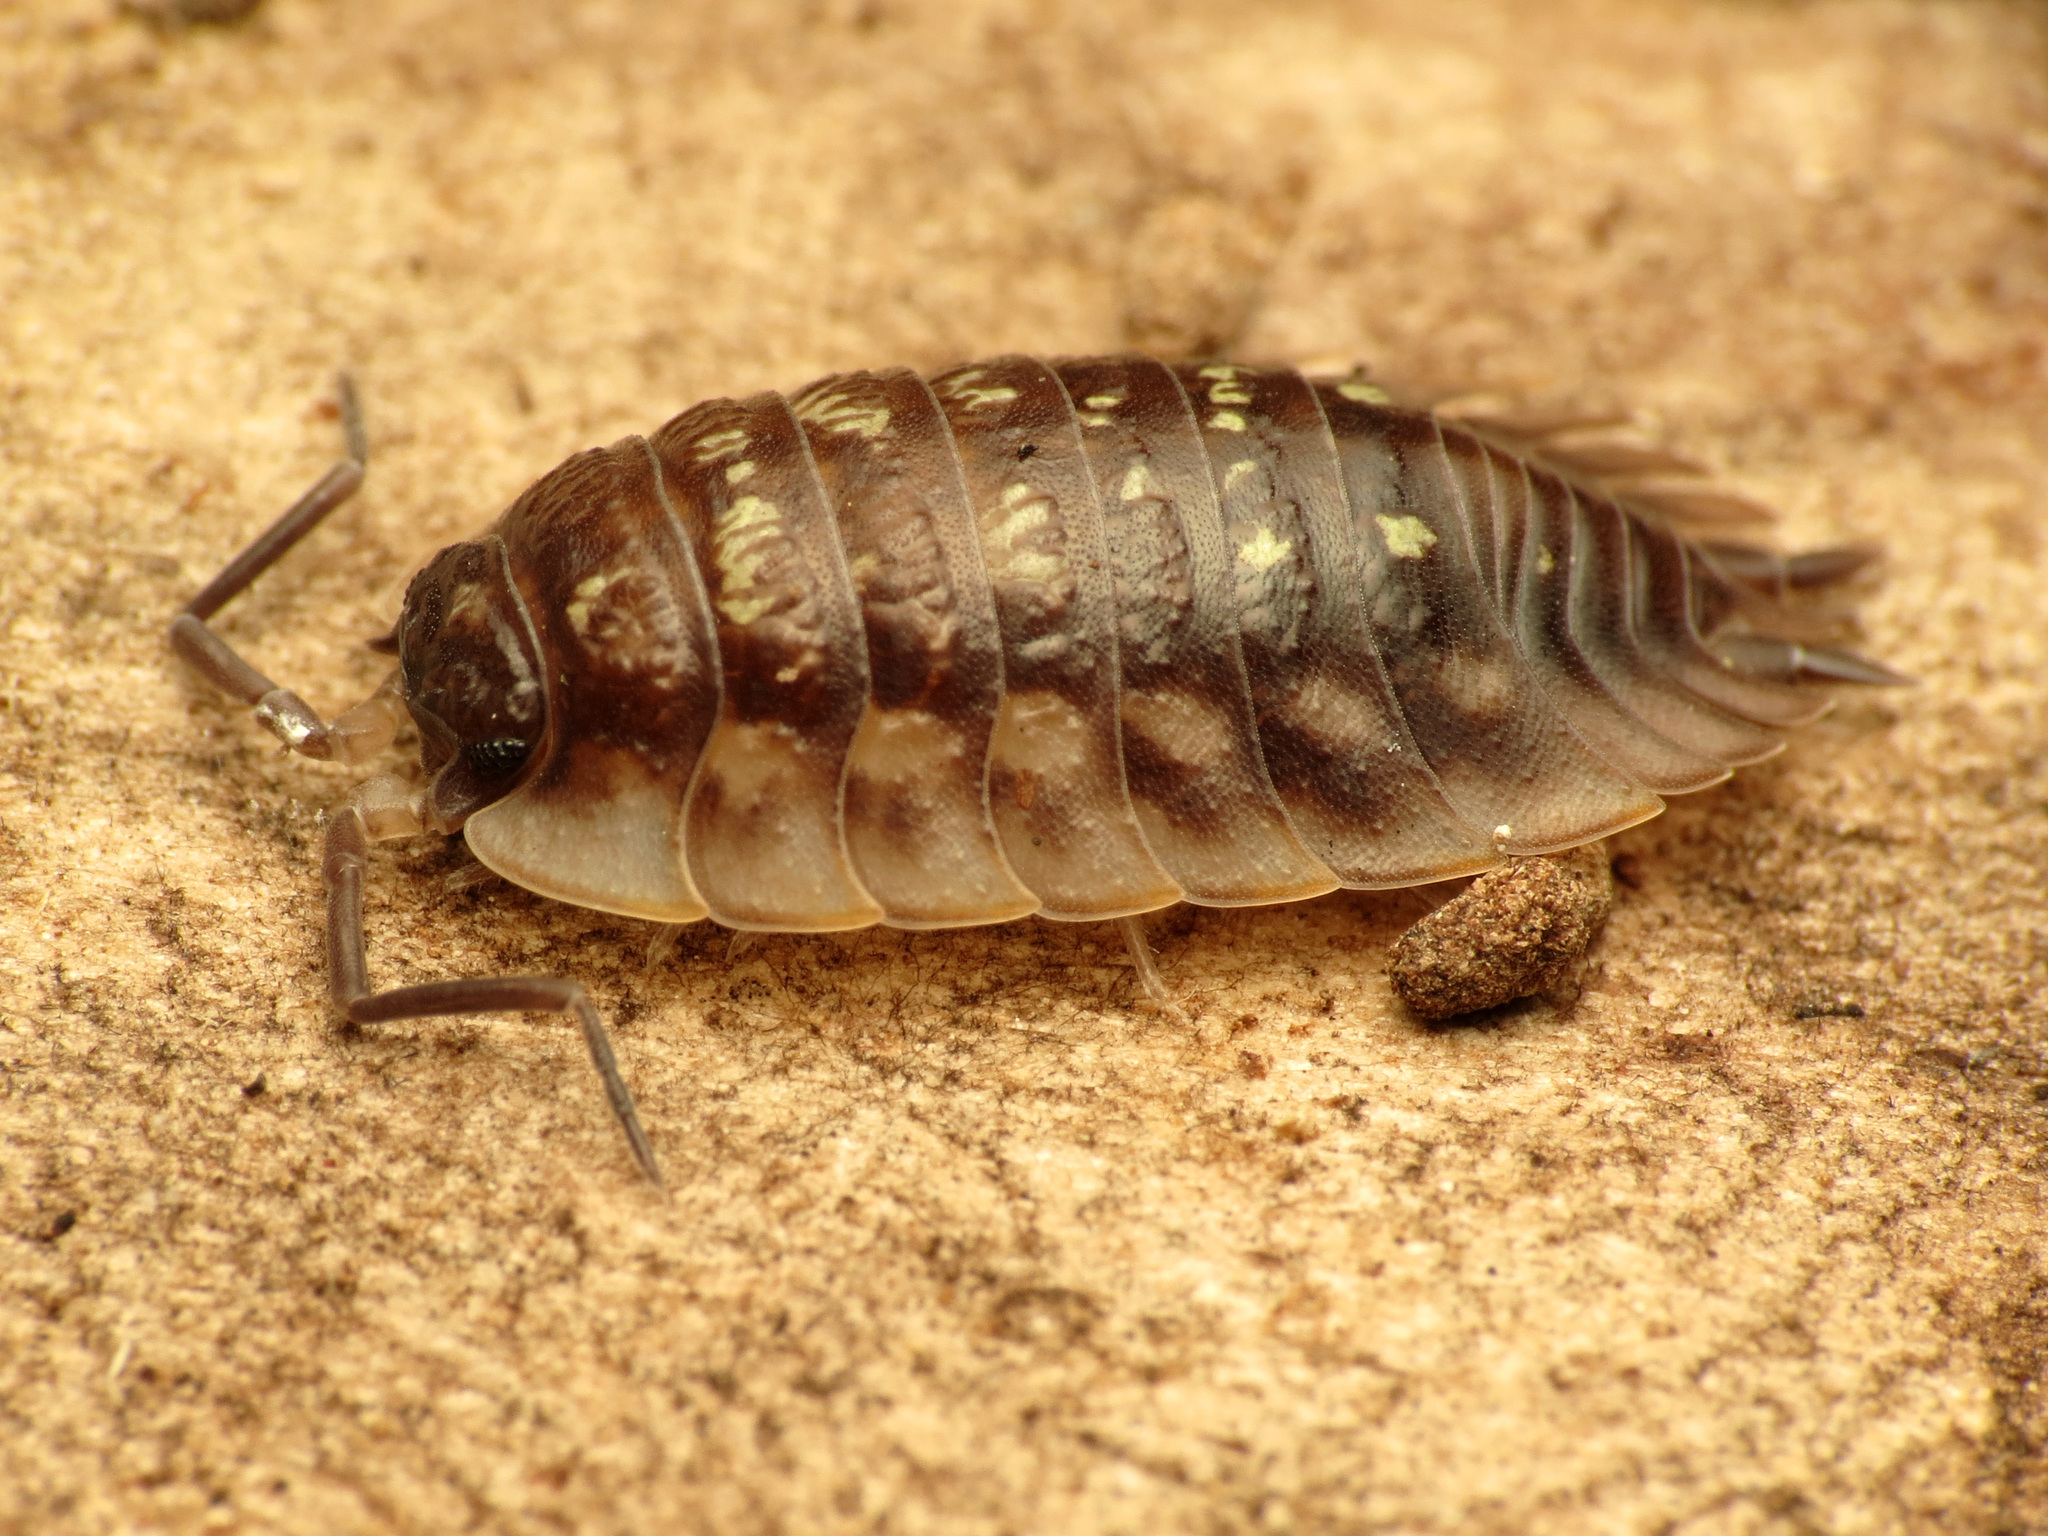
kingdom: Animalia
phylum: Arthropoda
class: Malacostraca
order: Isopoda
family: Oniscidae
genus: Oniscus
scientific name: Oniscus asellus
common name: Common shiny woodlouse
